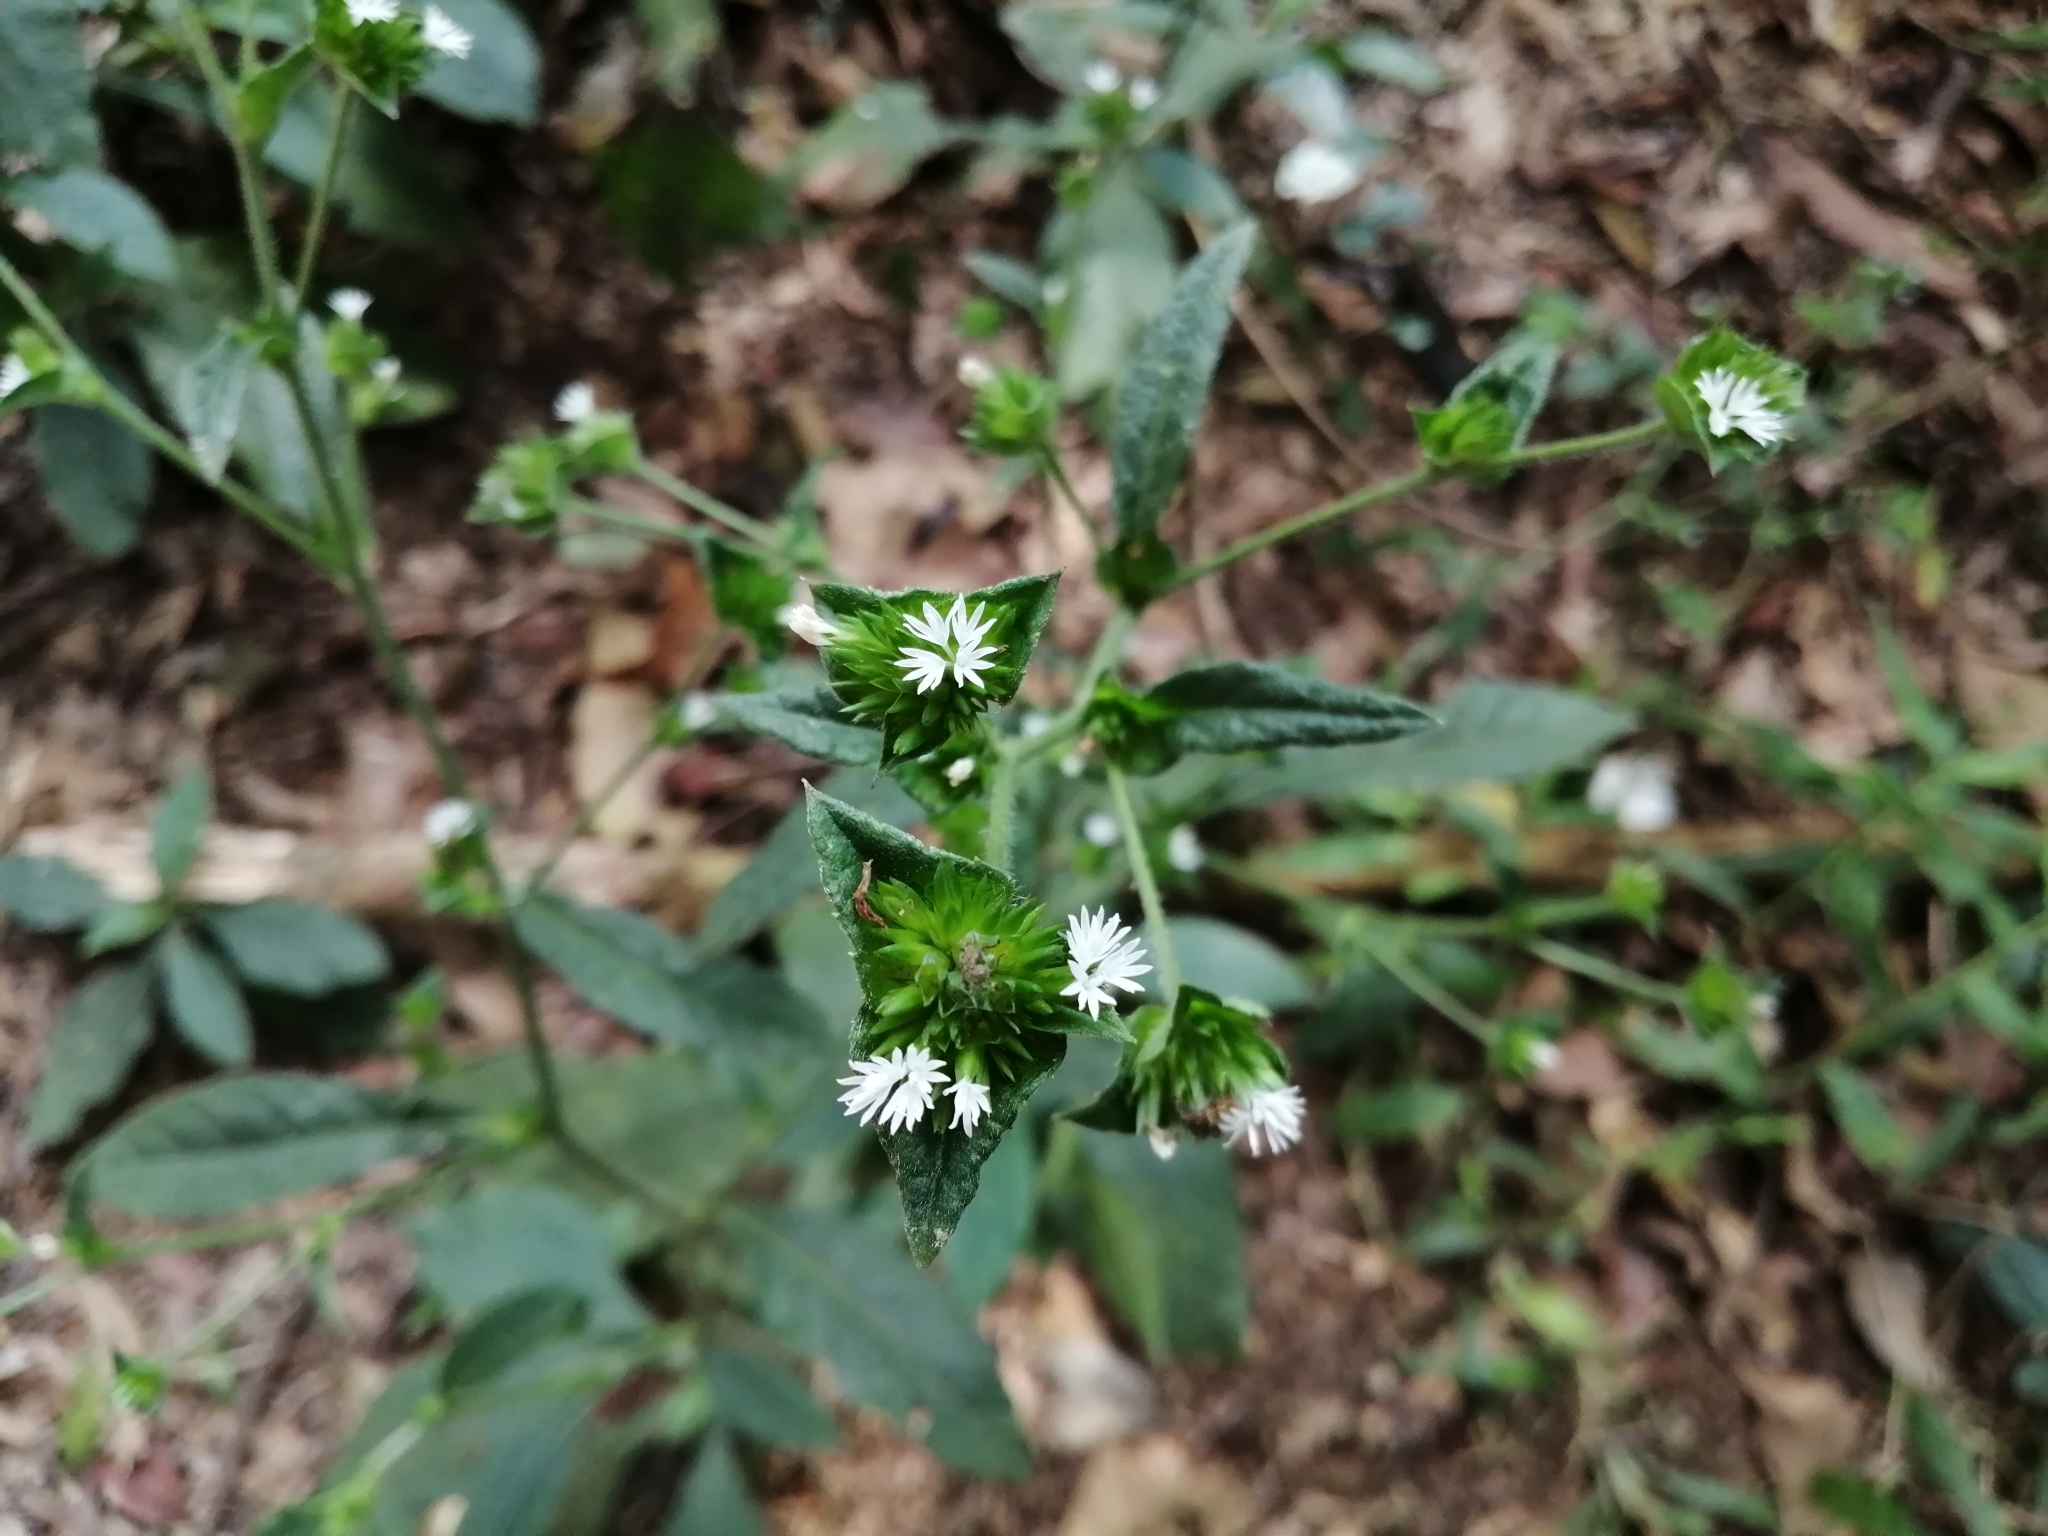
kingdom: Plantae
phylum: Tracheophyta
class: Magnoliopsida
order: Asterales
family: Asteraceae
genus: Elephantopus
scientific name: Elephantopus mollis
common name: Soft elephantsfoot
